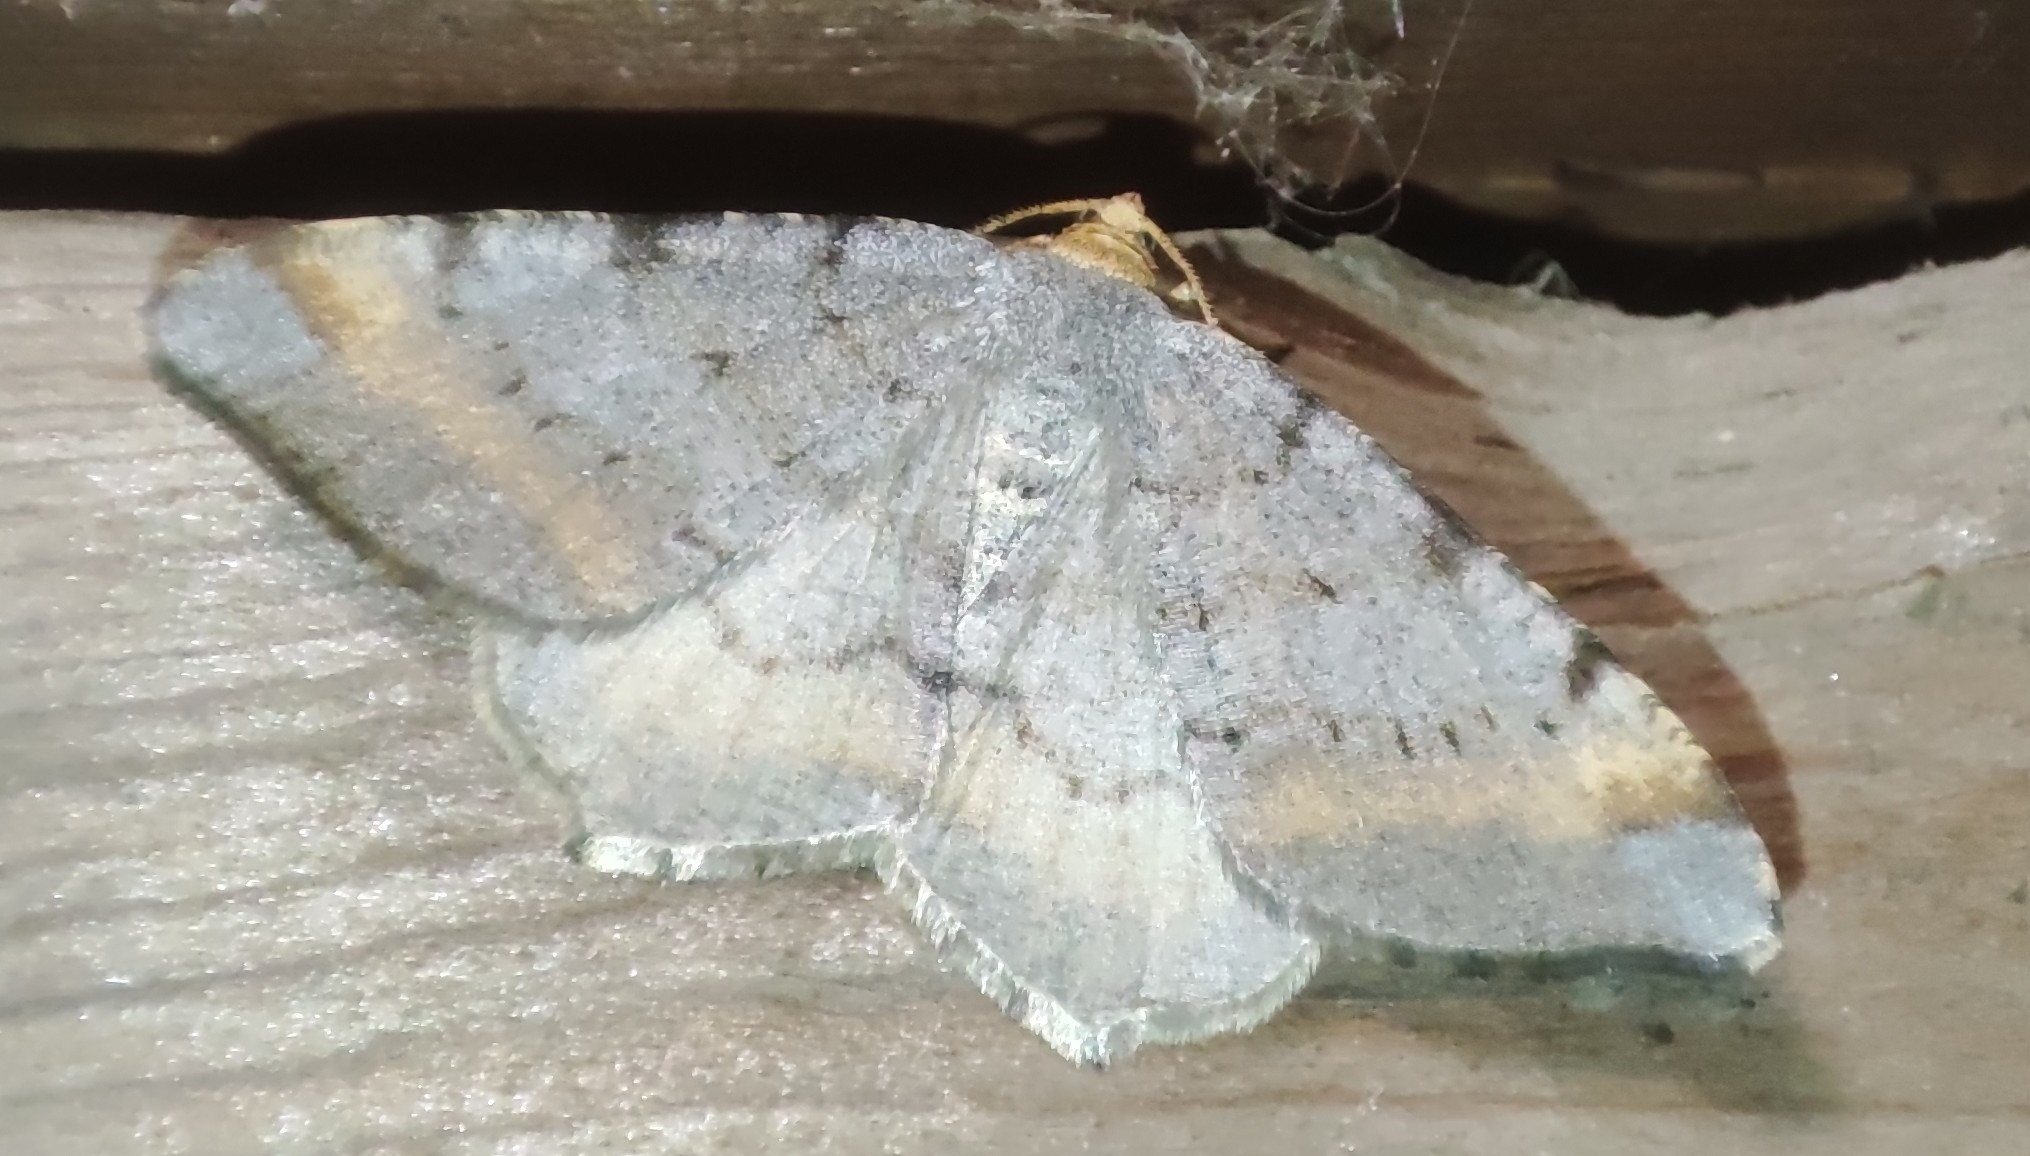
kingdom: Animalia
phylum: Arthropoda
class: Insecta
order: Lepidoptera
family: Geometridae
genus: Macaria
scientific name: Macaria liturata
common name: Tawny-barred angle
